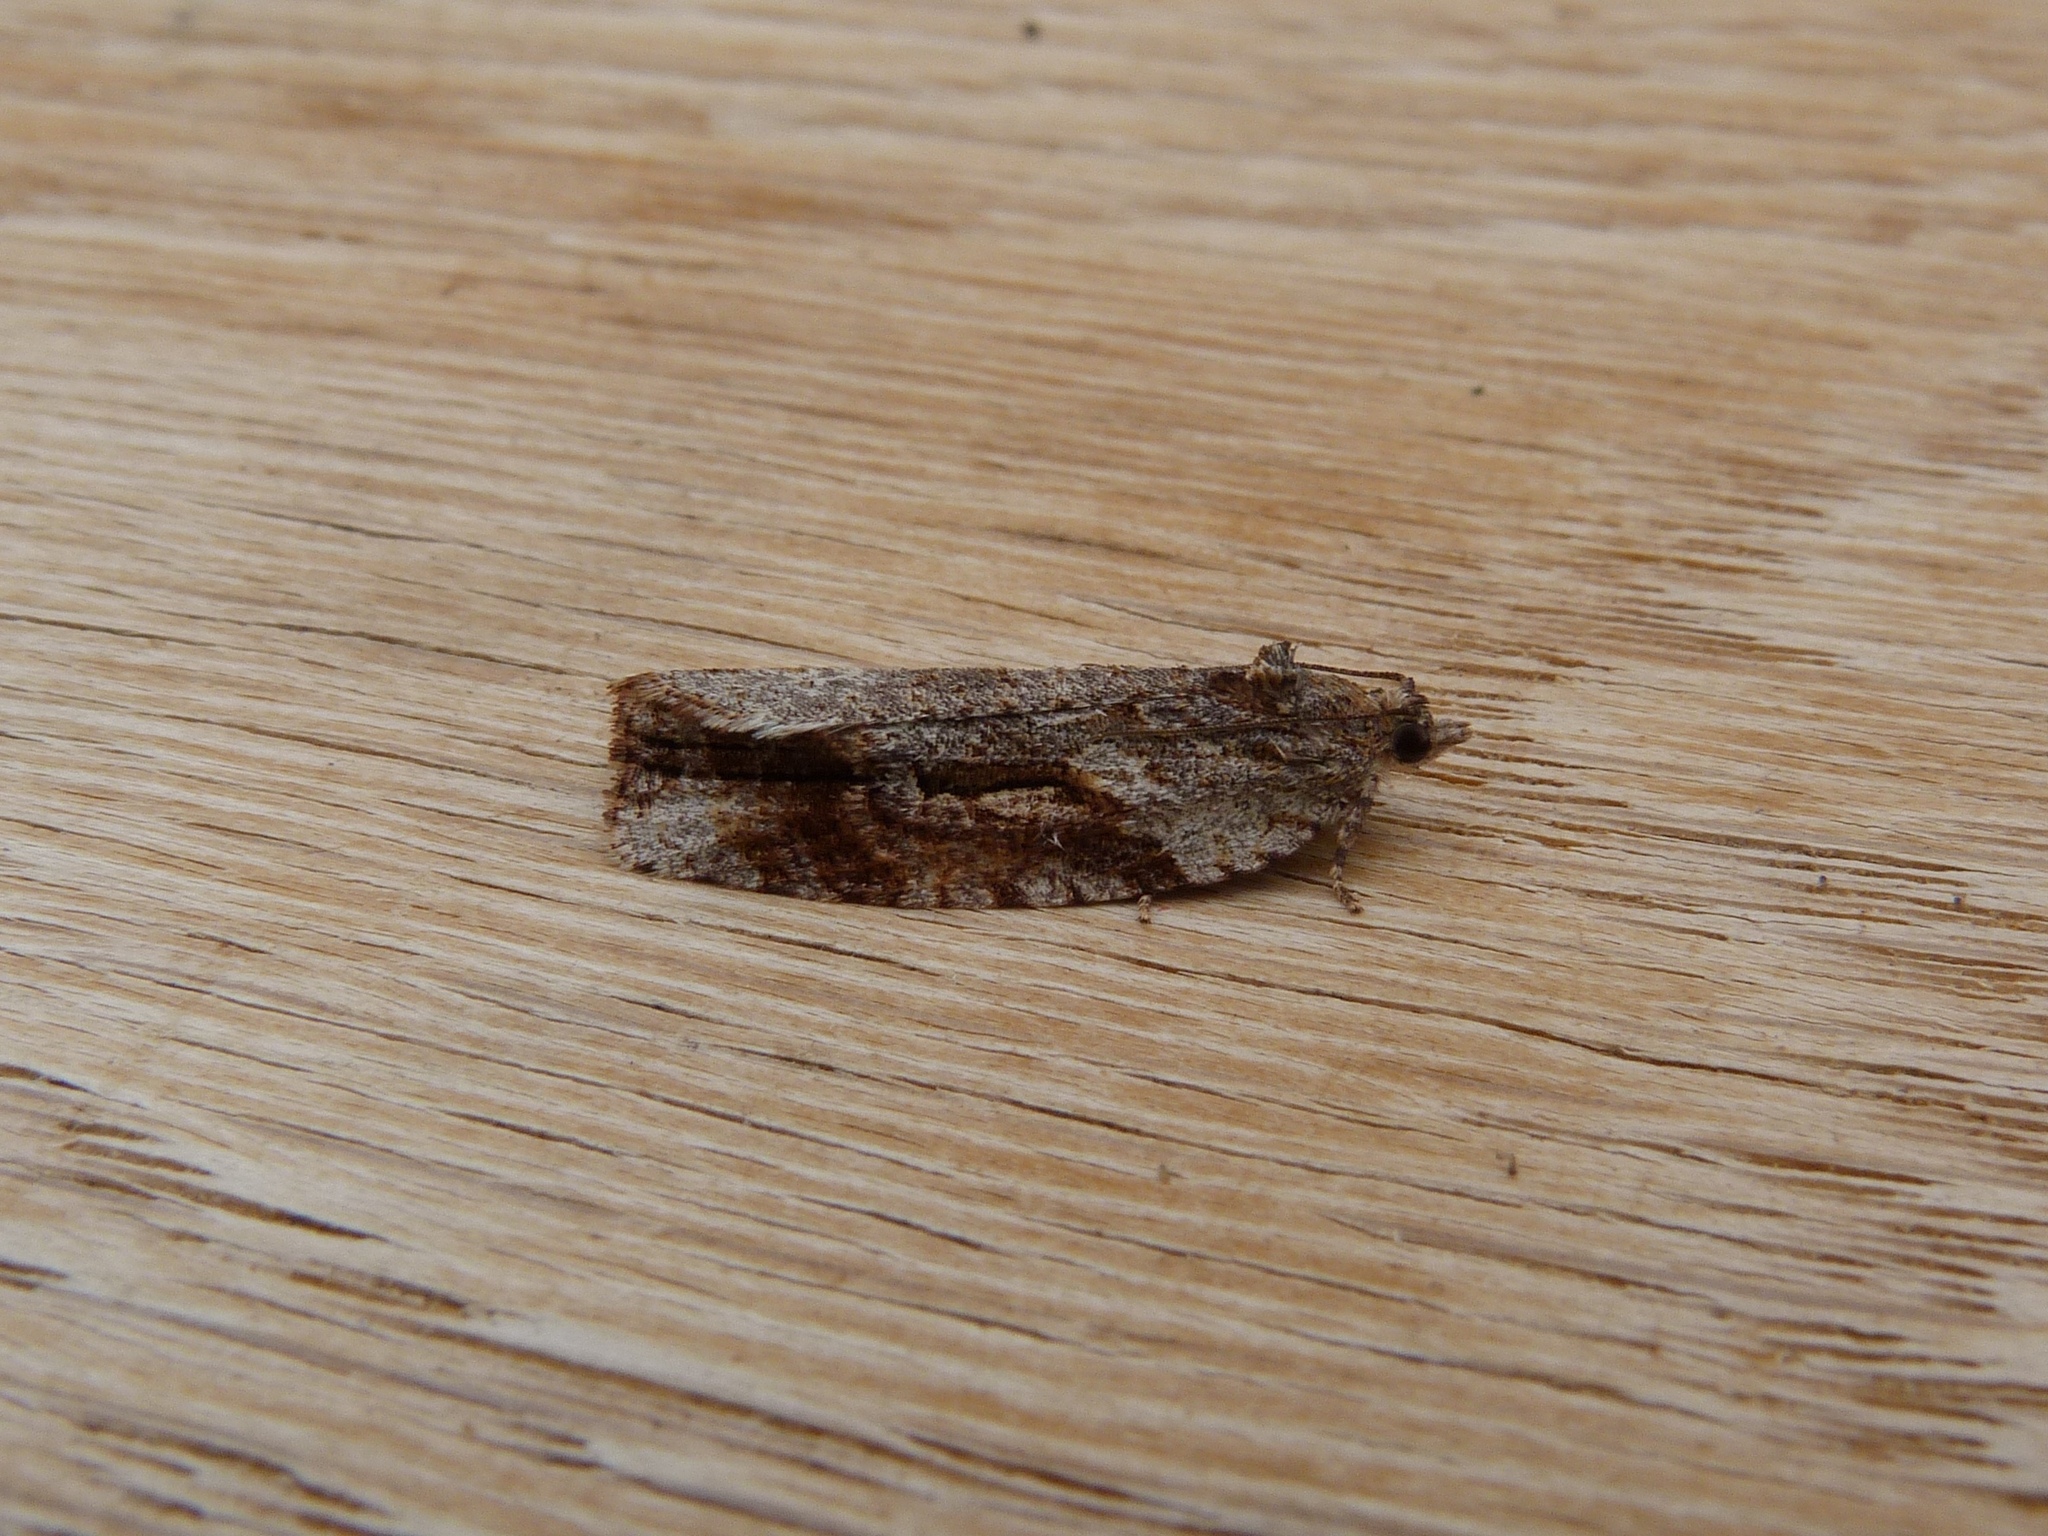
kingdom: Animalia
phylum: Arthropoda
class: Insecta
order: Lepidoptera
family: Tortricidae
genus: Thrincophora
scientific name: Thrincophora lignigerana
